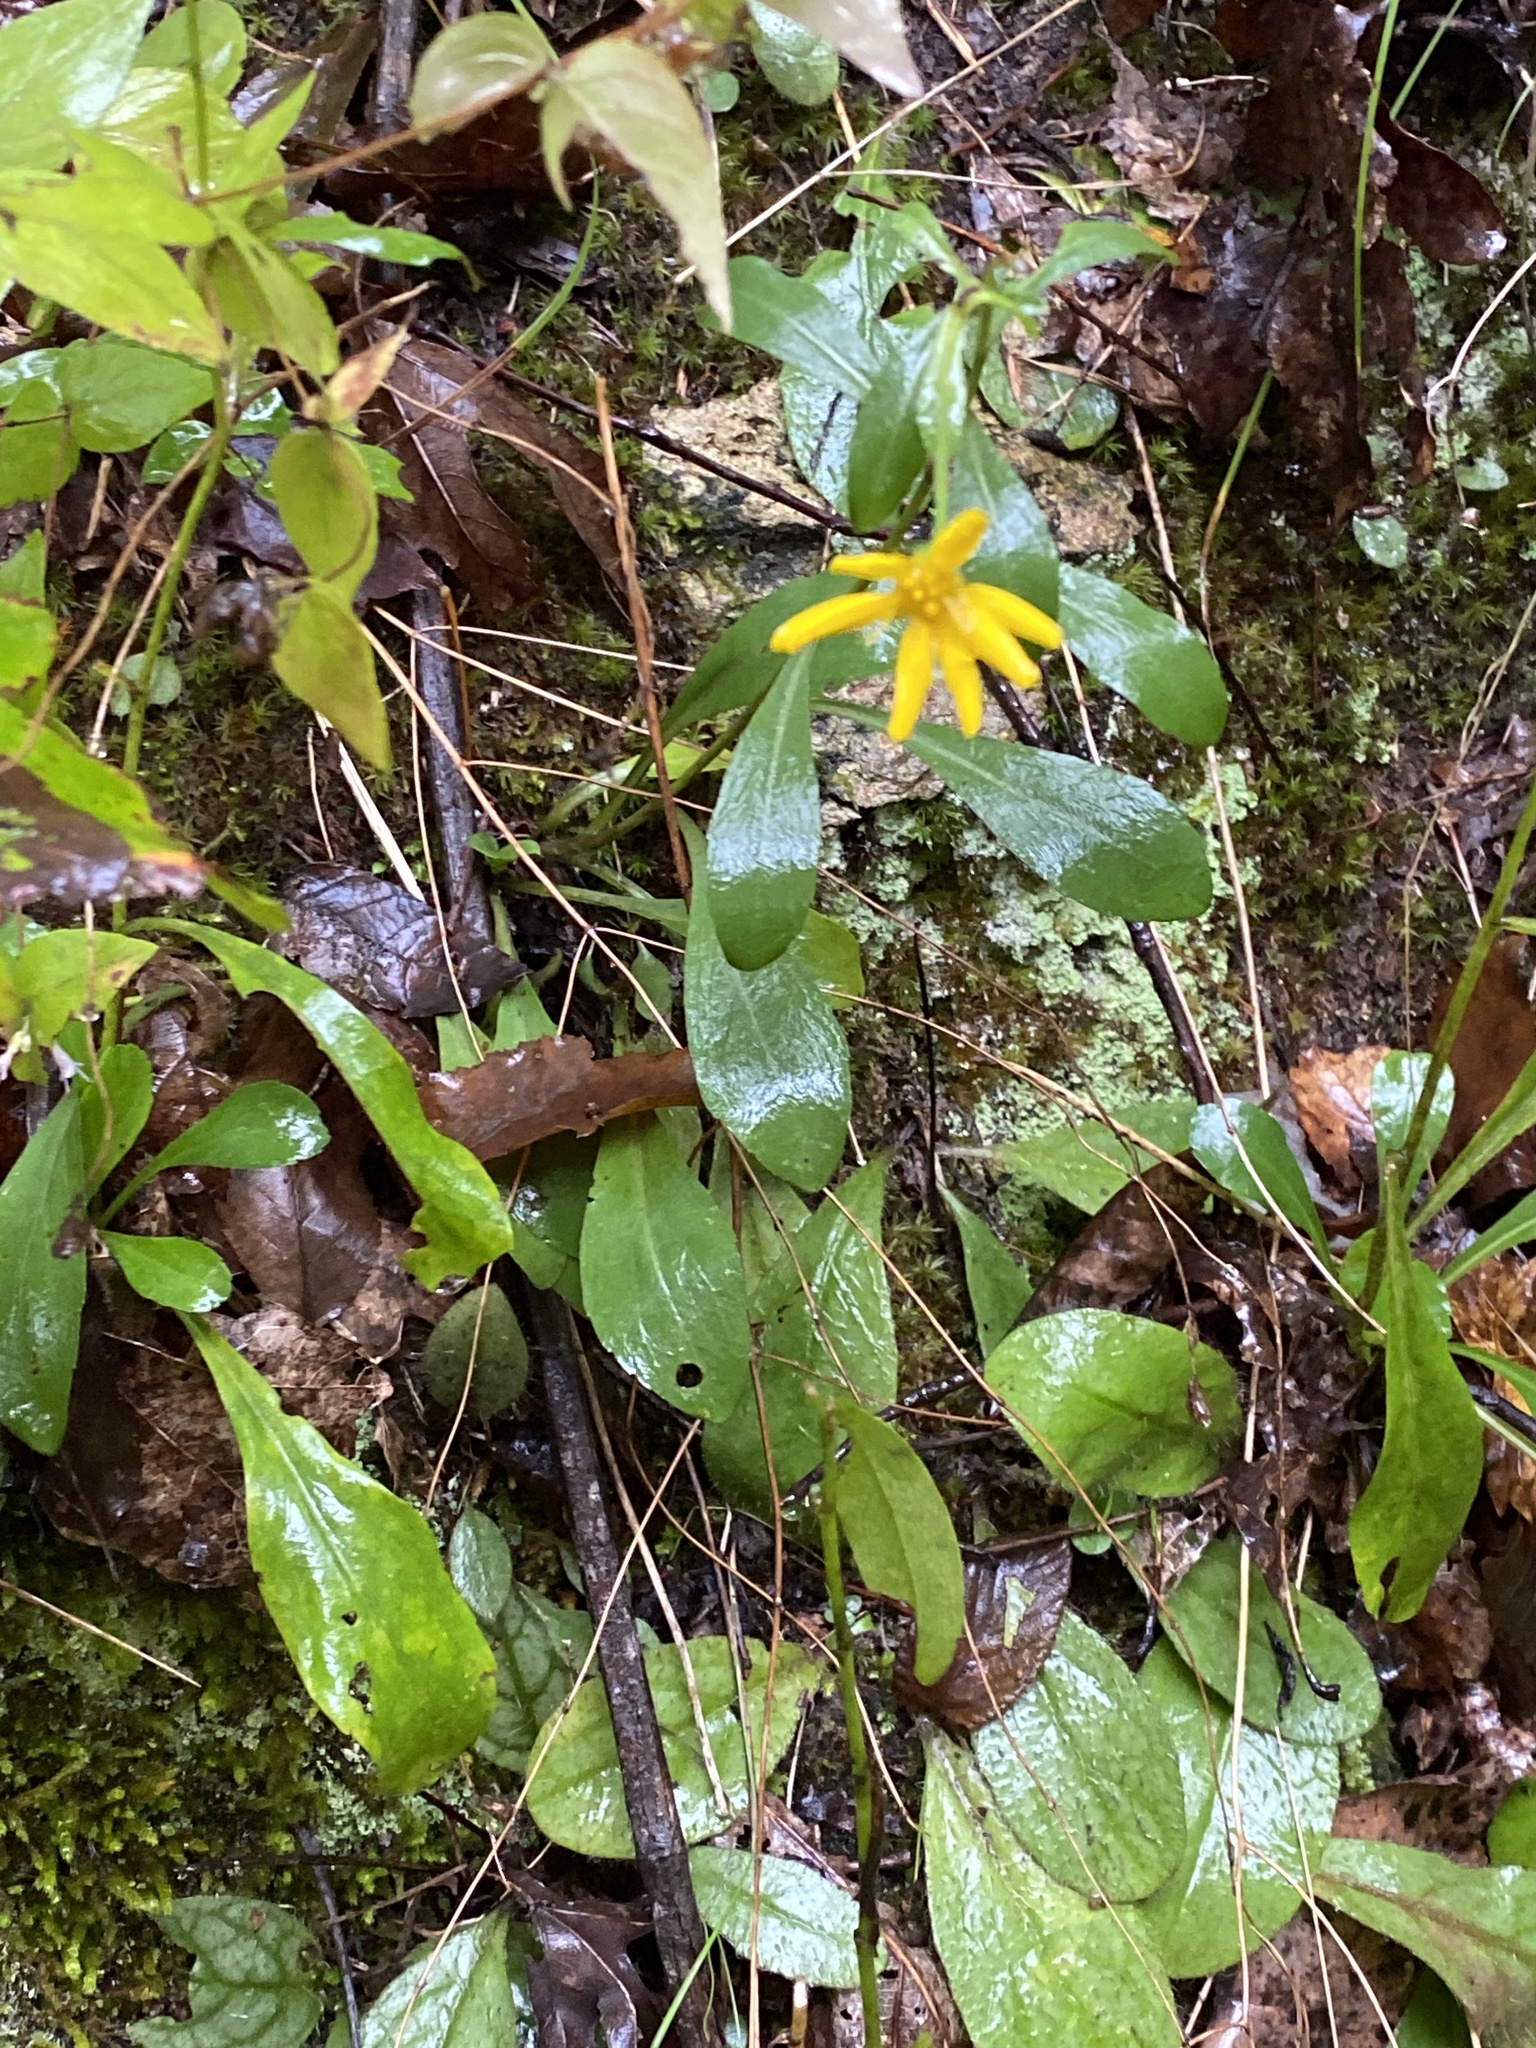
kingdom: Plantae
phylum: Tracheophyta
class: Magnoliopsida
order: Asterales
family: Asteraceae
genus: Chrysopsis
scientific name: Chrysopsis mariana
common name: Maryland golden-aster
